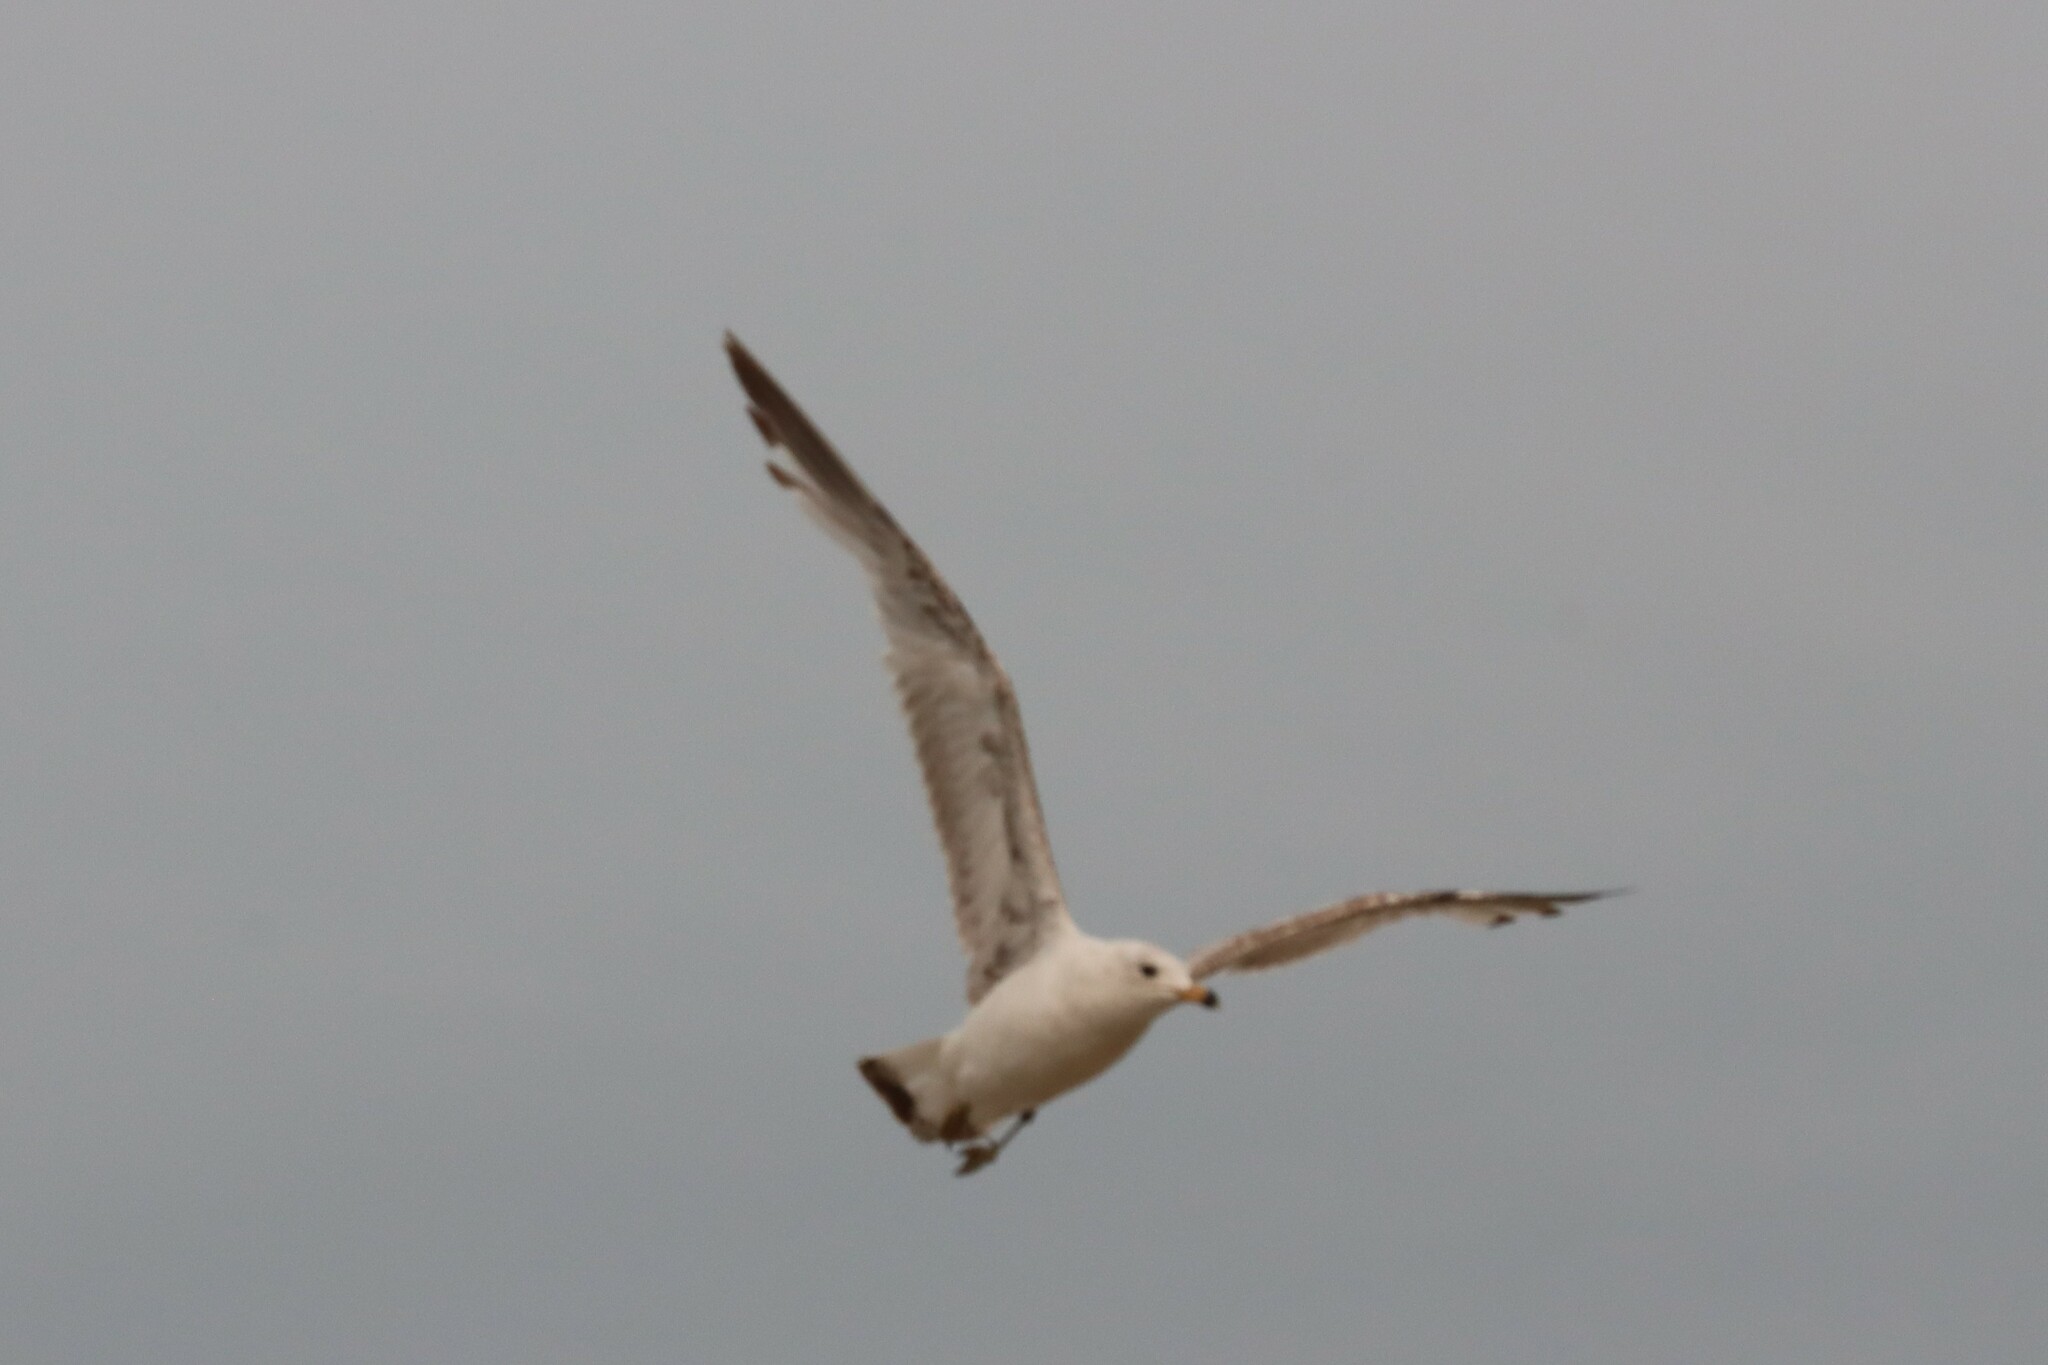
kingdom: Animalia
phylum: Chordata
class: Aves
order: Charadriiformes
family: Laridae
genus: Larus
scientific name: Larus delawarensis
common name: Ring-billed gull
